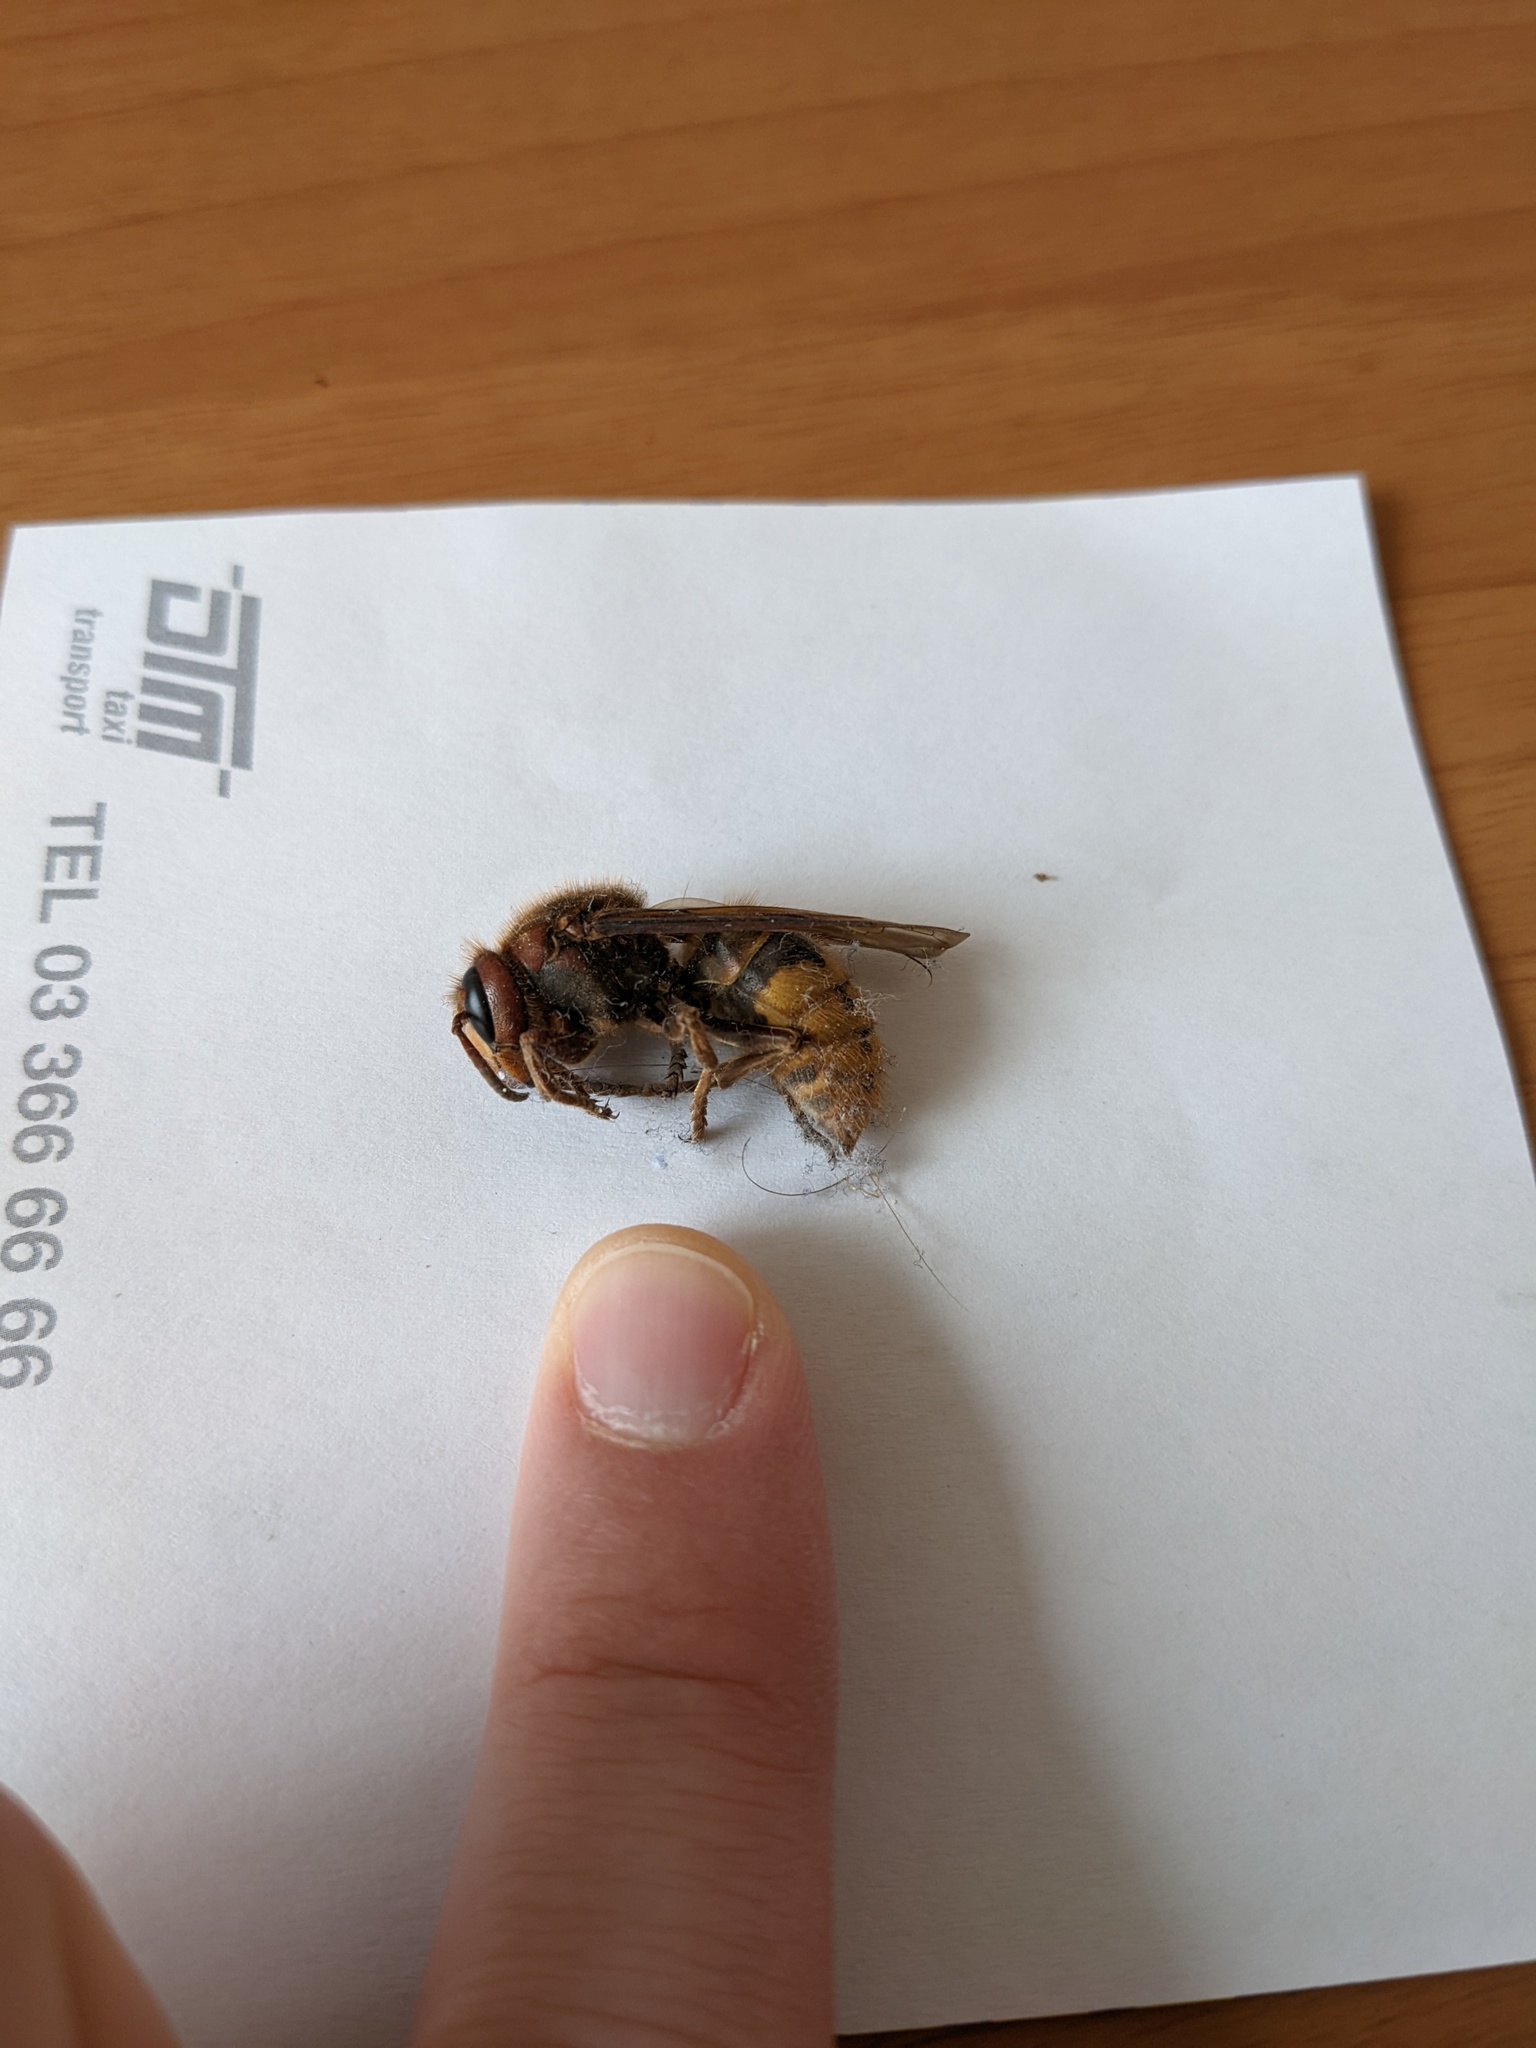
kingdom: Animalia
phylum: Arthropoda
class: Insecta
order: Hymenoptera
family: Vespidae
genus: Vespa
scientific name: Vespa crabro
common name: Hornet
